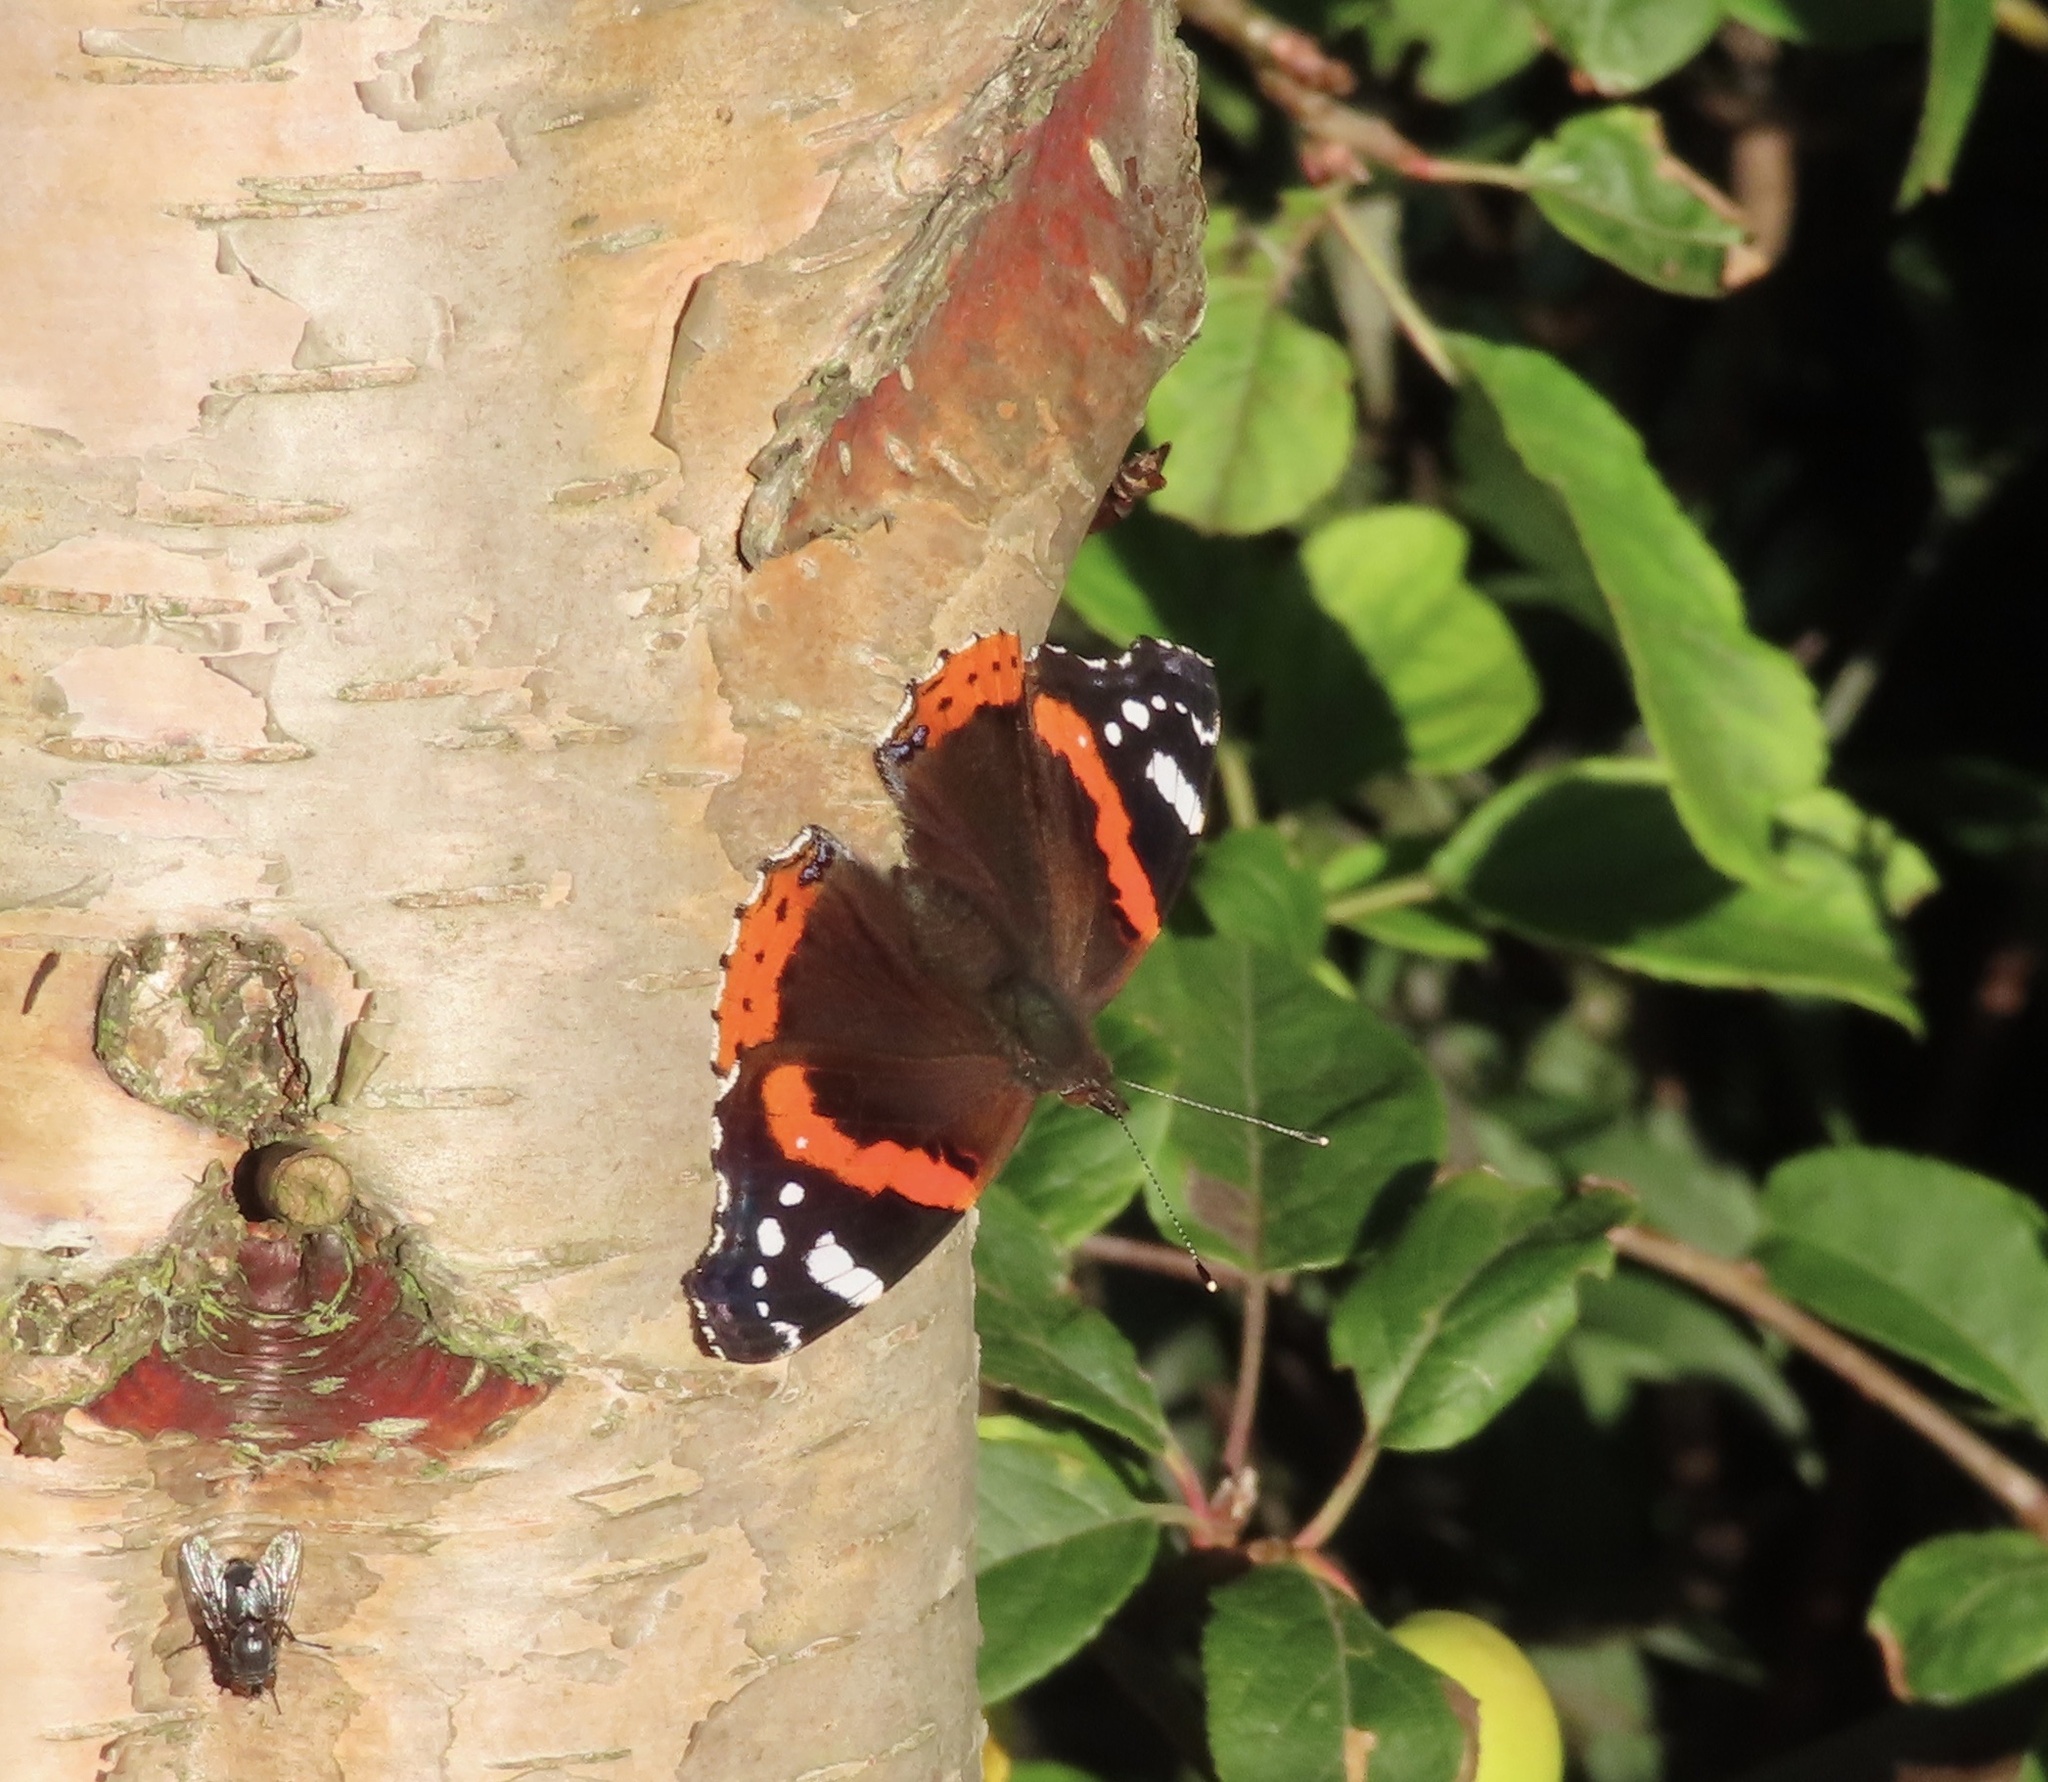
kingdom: Animalia
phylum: Arthropoda
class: Insecta
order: Lepidoptera
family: Nymphalidae
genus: Vanessa
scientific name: Vanessa atalanta
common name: Red admiral
